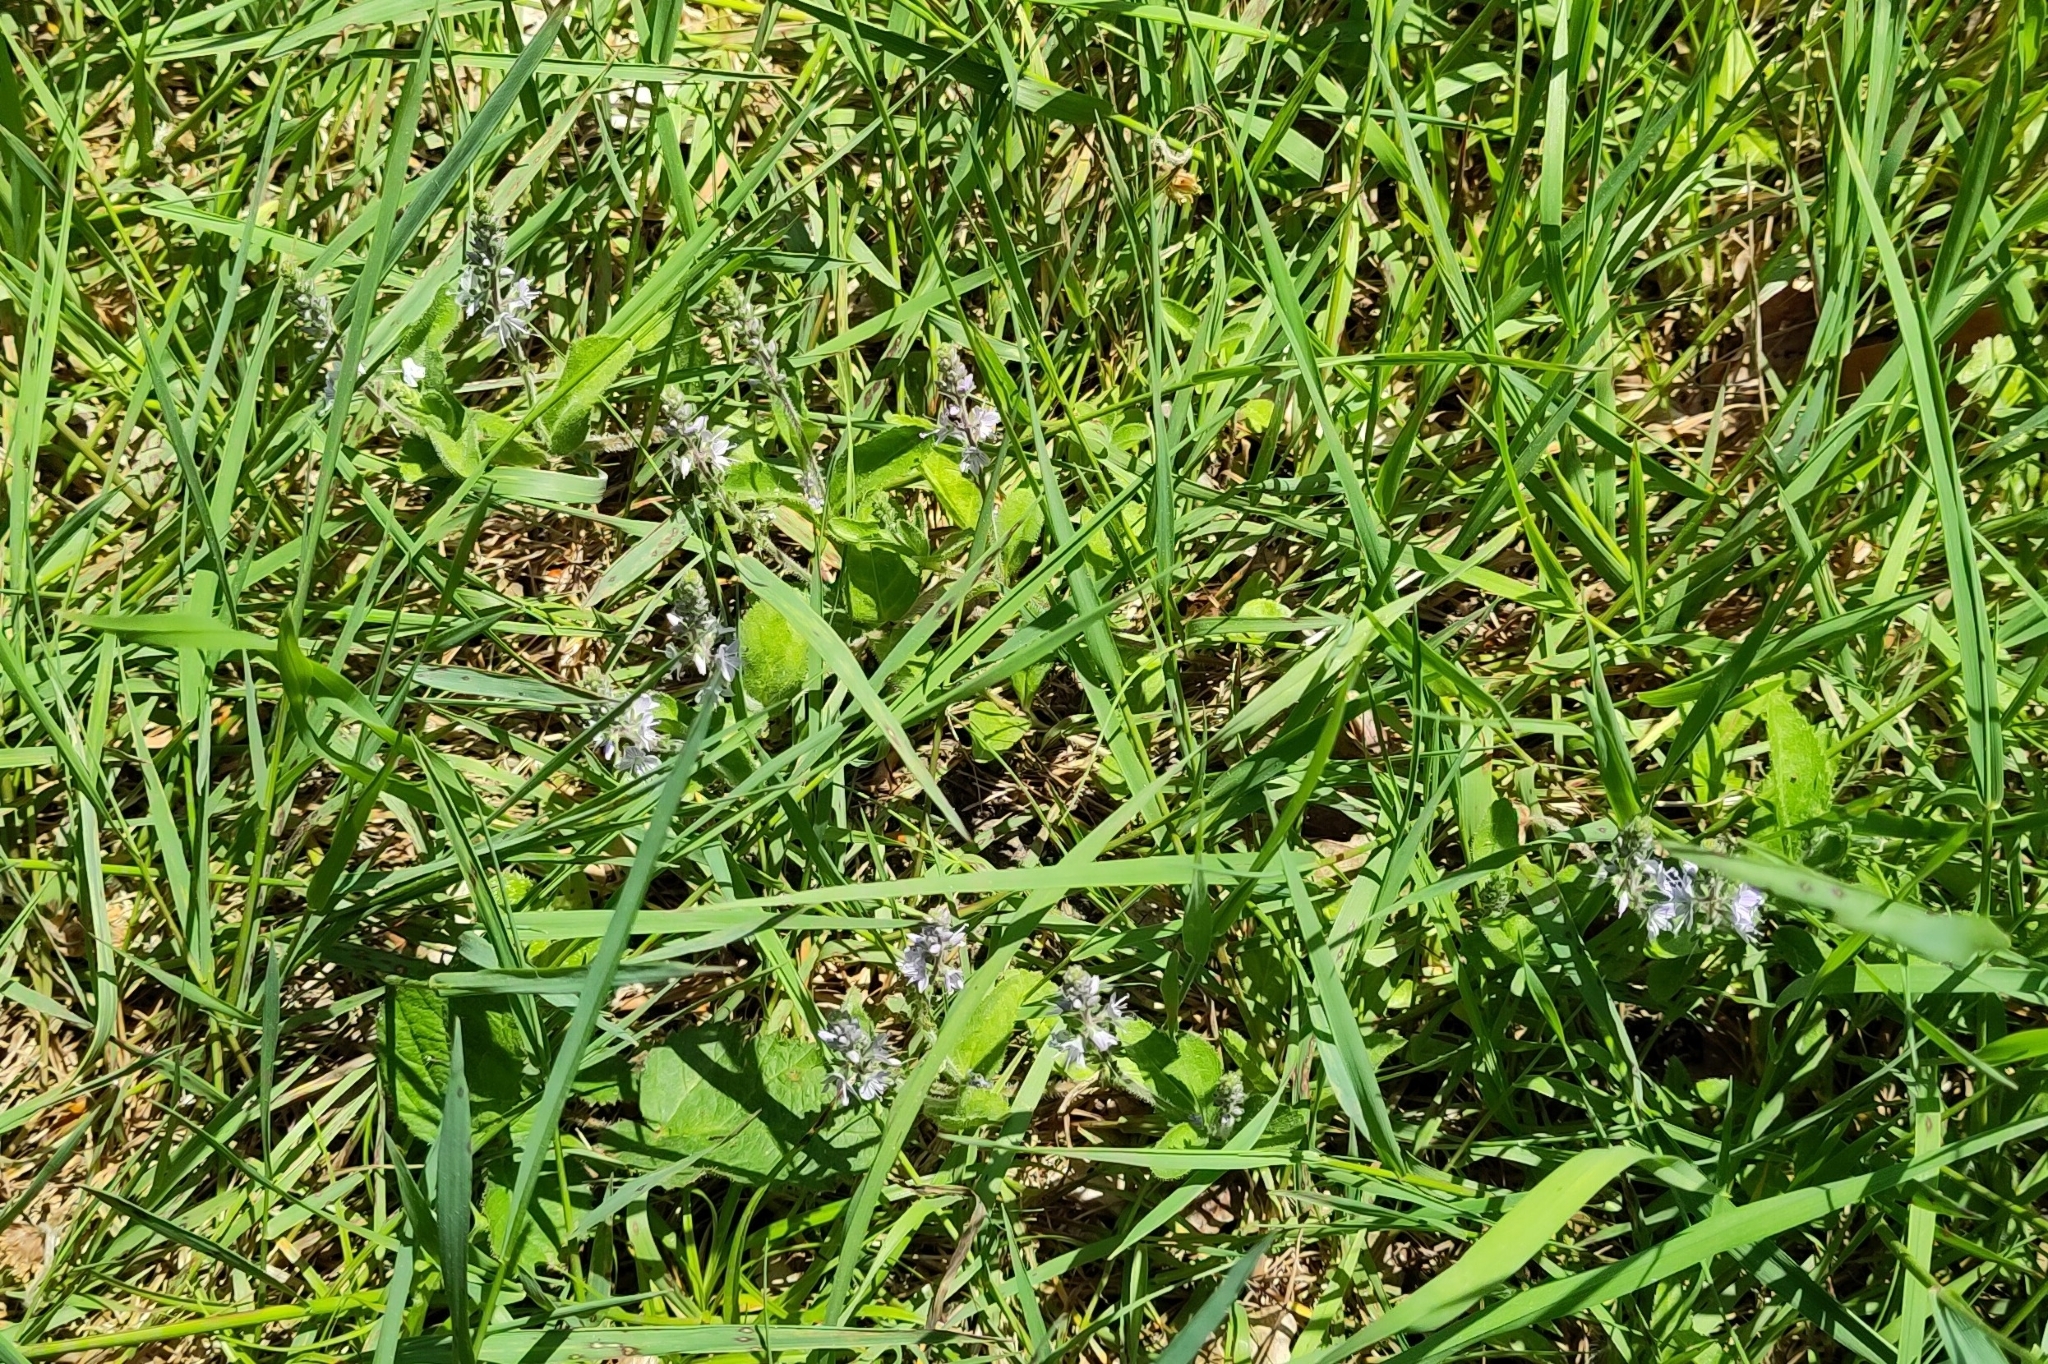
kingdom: Plantae
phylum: Tracheophyta
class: Magnoliopsida
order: Lamiales
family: Plantaginaceae
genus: Veronica
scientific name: Veronica officinalis
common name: Common speedwell
